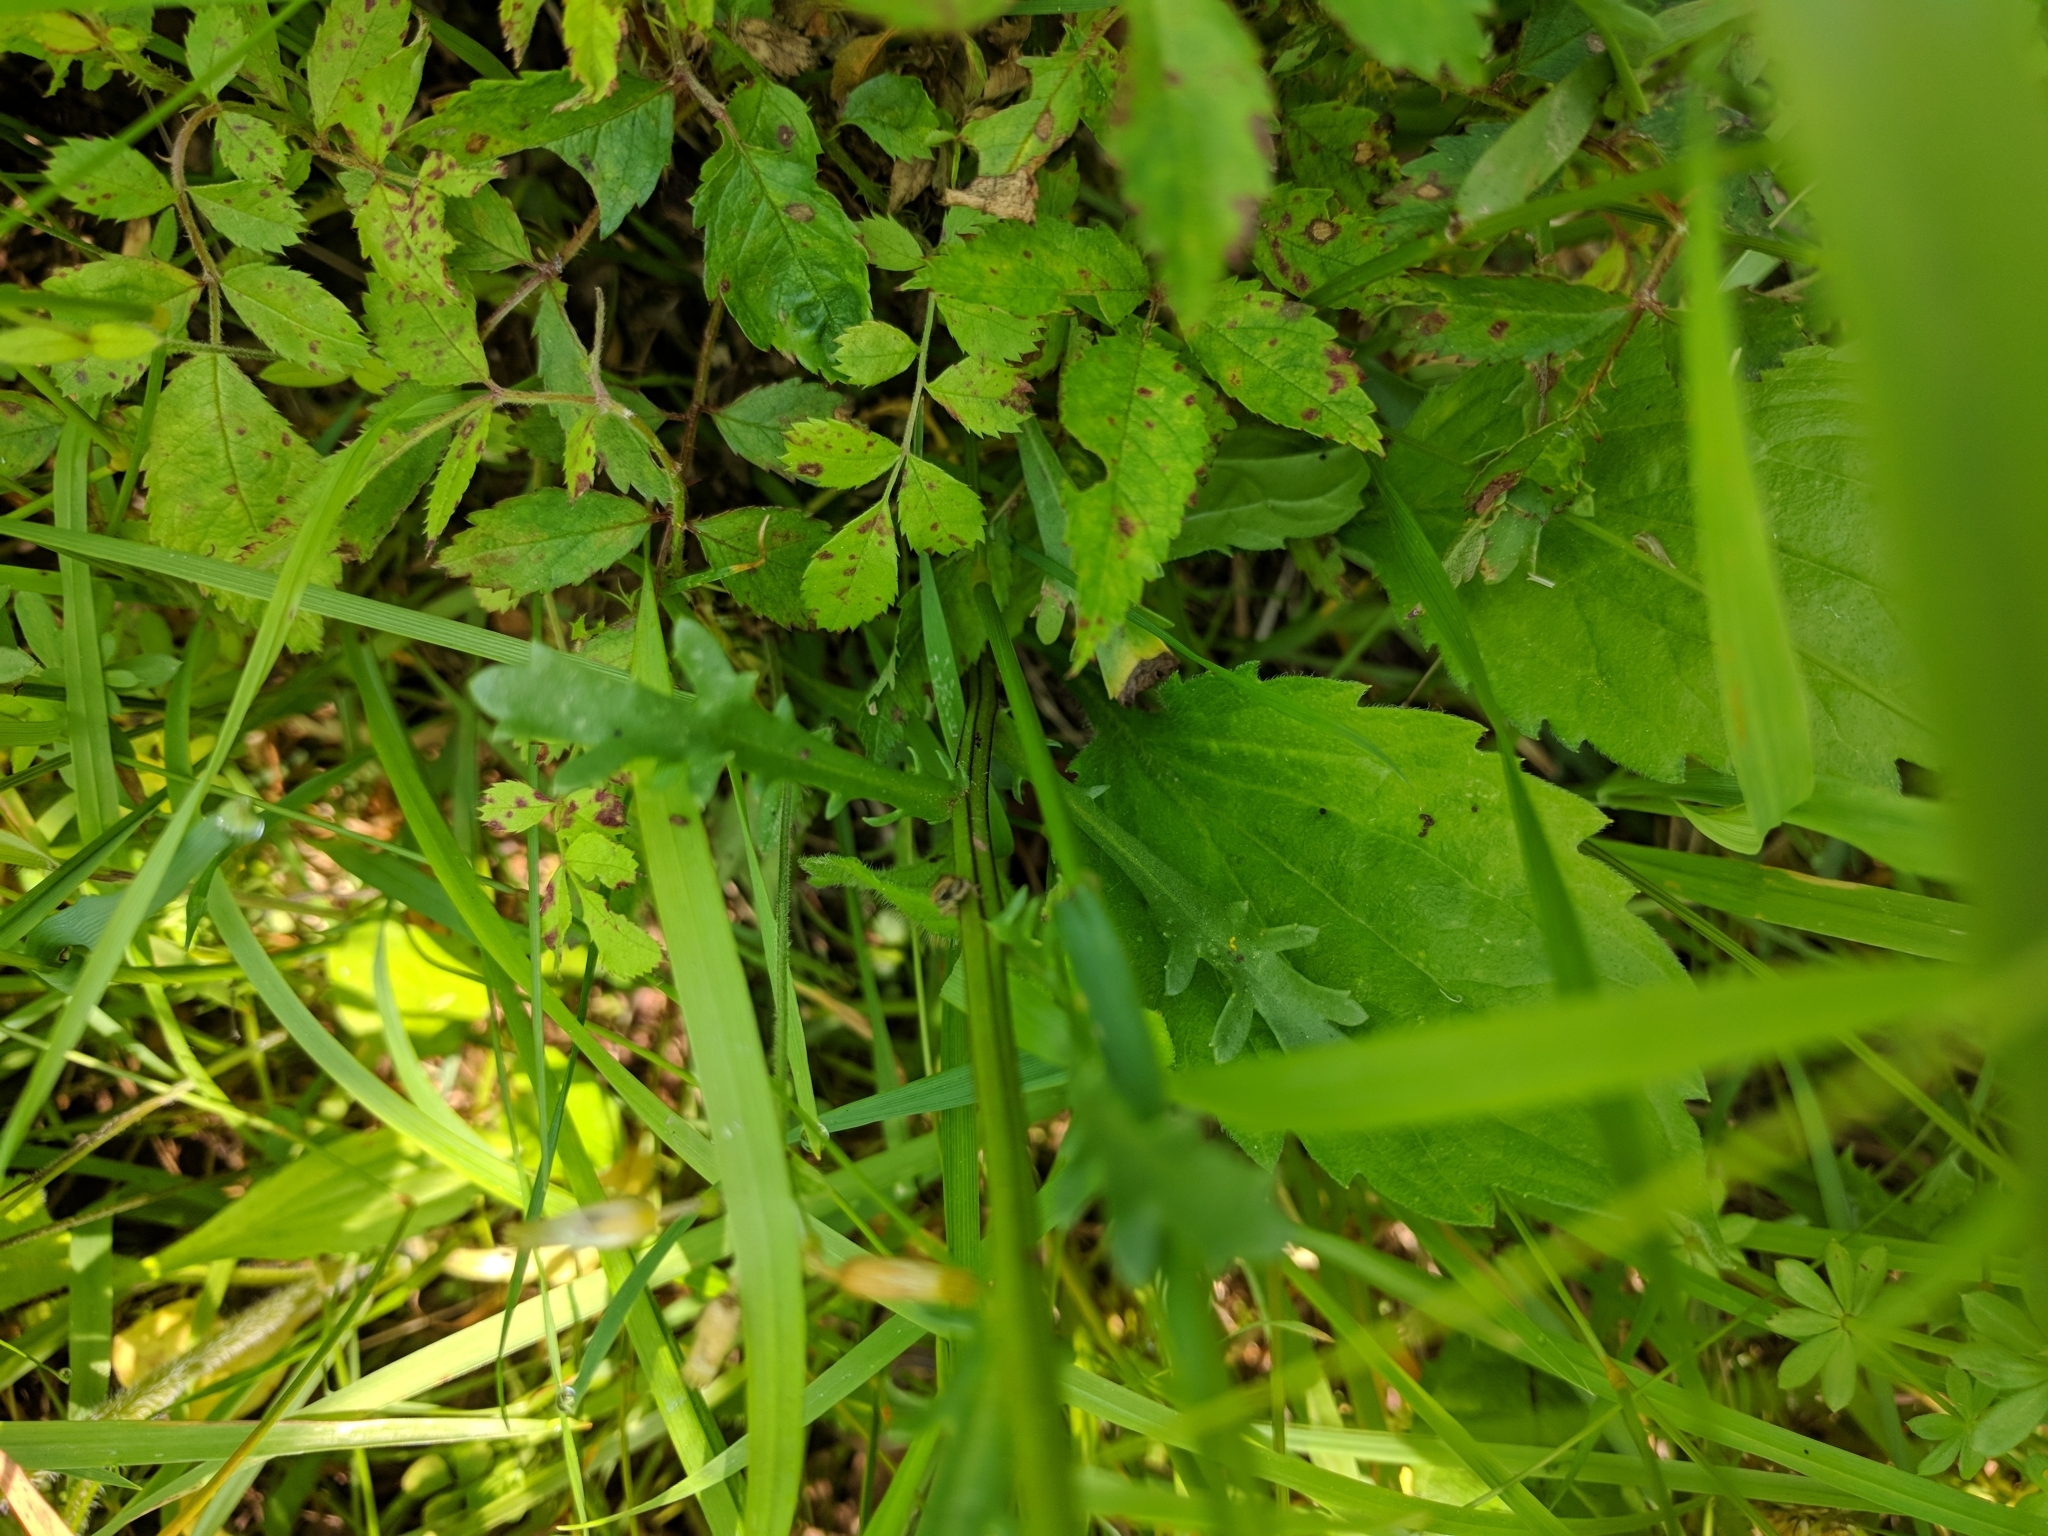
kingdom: Plantae
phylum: Tracheophyta
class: Magnoliopsida
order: Asterales
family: Asteraceae
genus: Leucanthemum
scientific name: Leucanthemum vulgare
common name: Oxeye daisy
